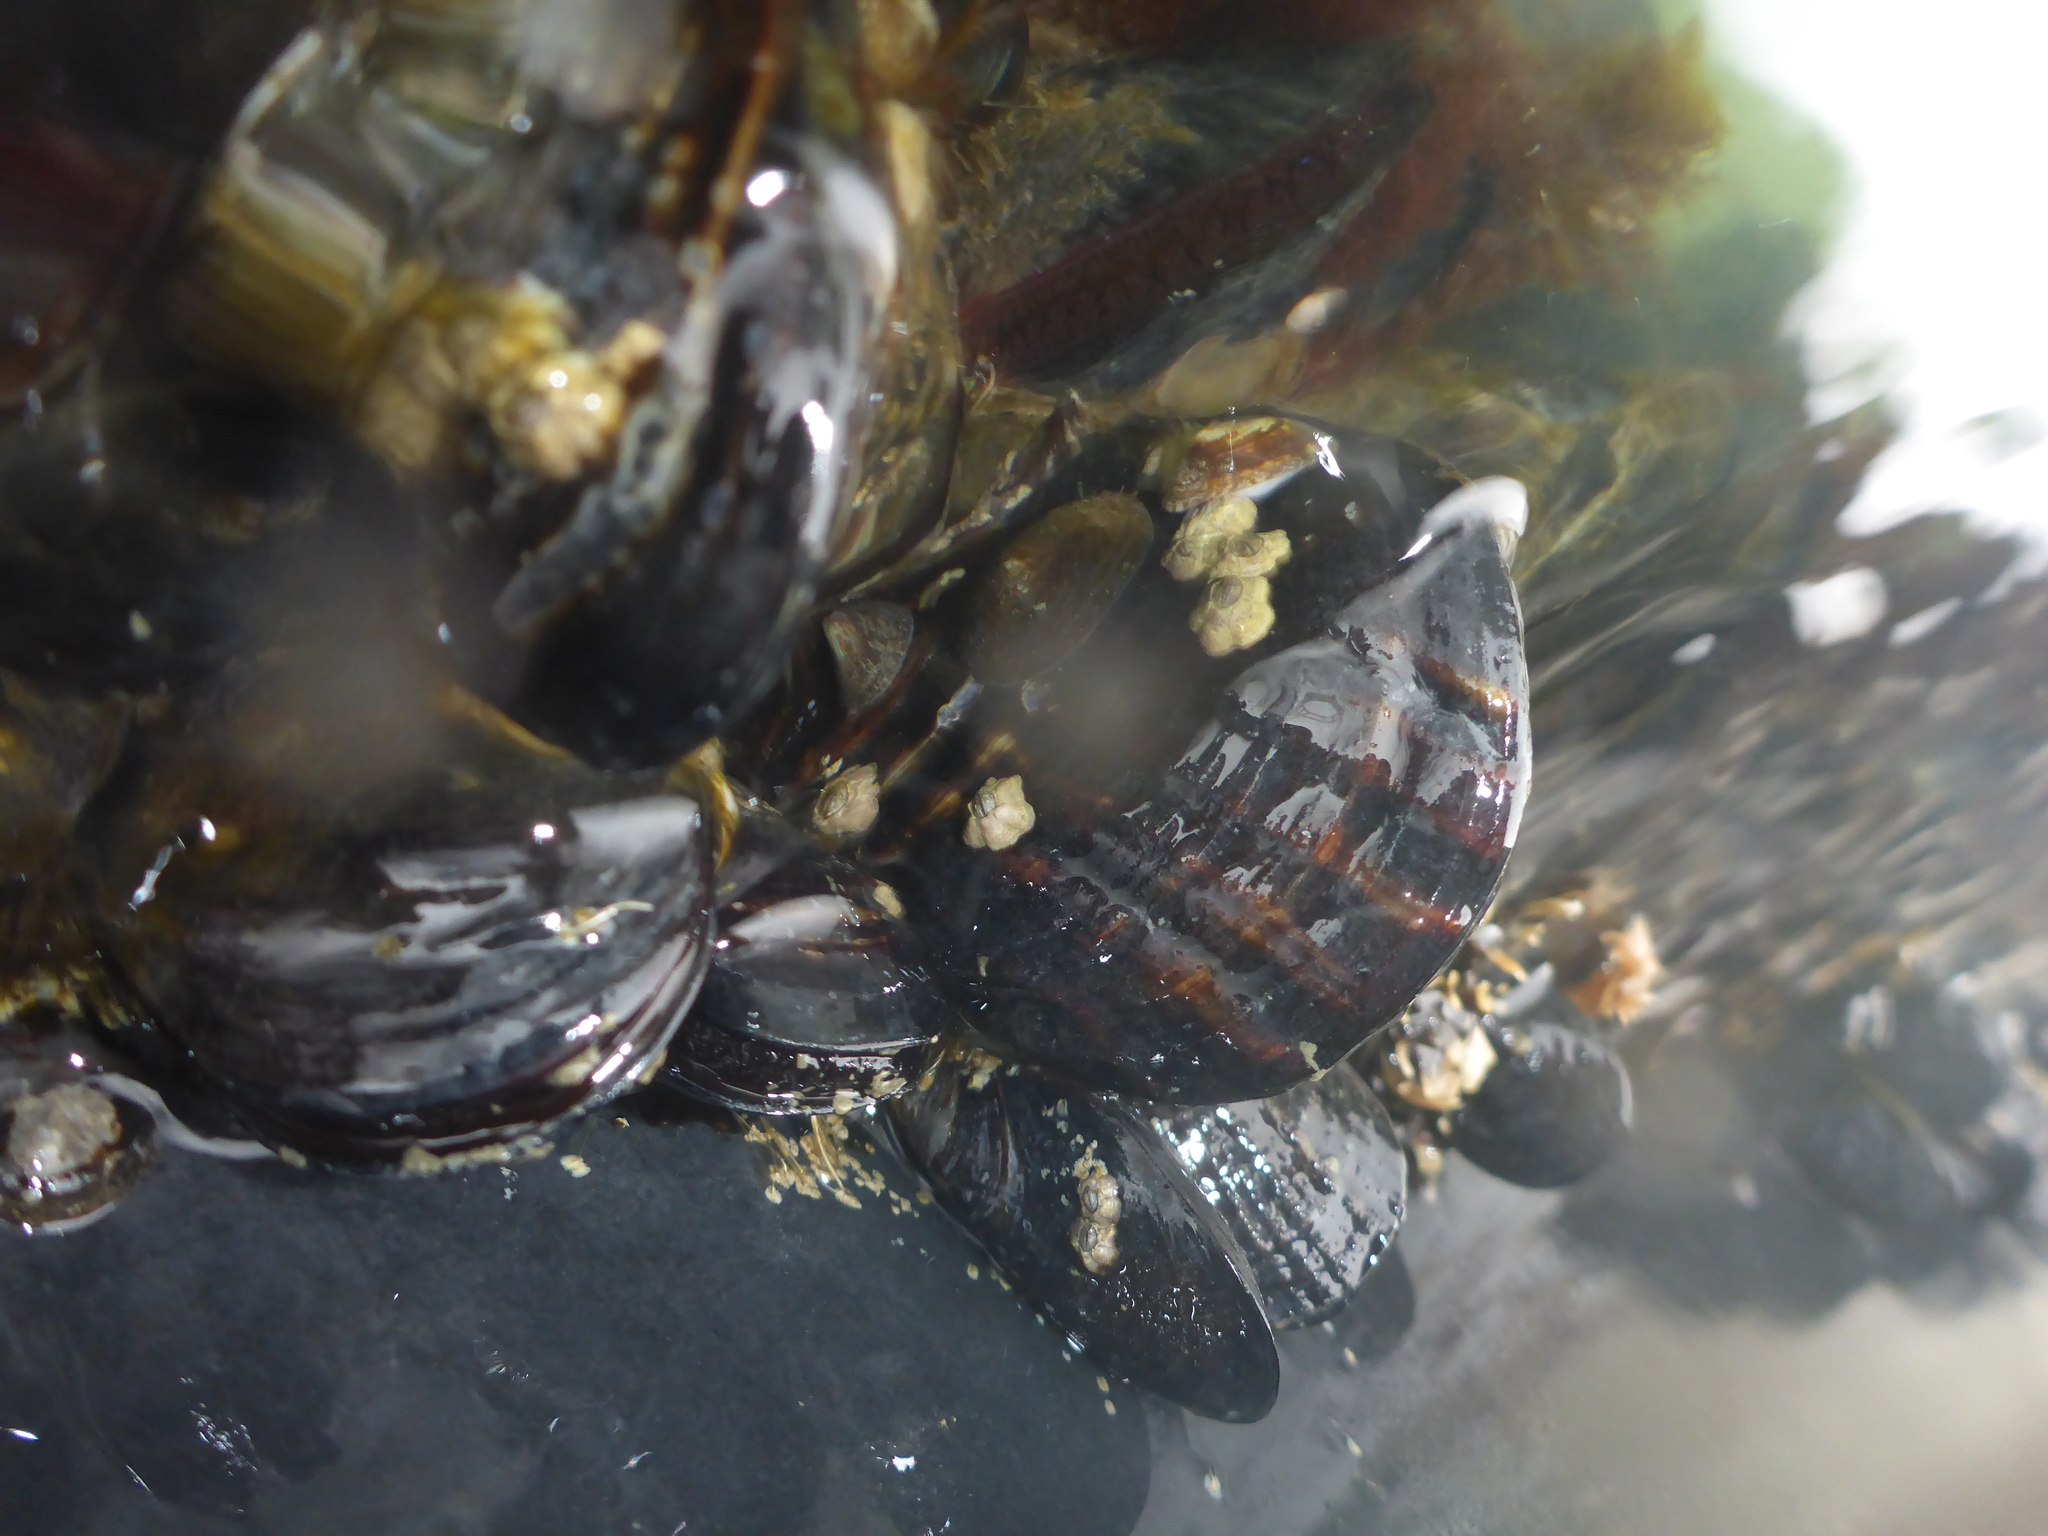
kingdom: Animalia
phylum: Mollusca
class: Bivalvia
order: Mytilida
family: Mytilidae
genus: Mytilus
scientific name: Mytilus californianus
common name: California mussel
